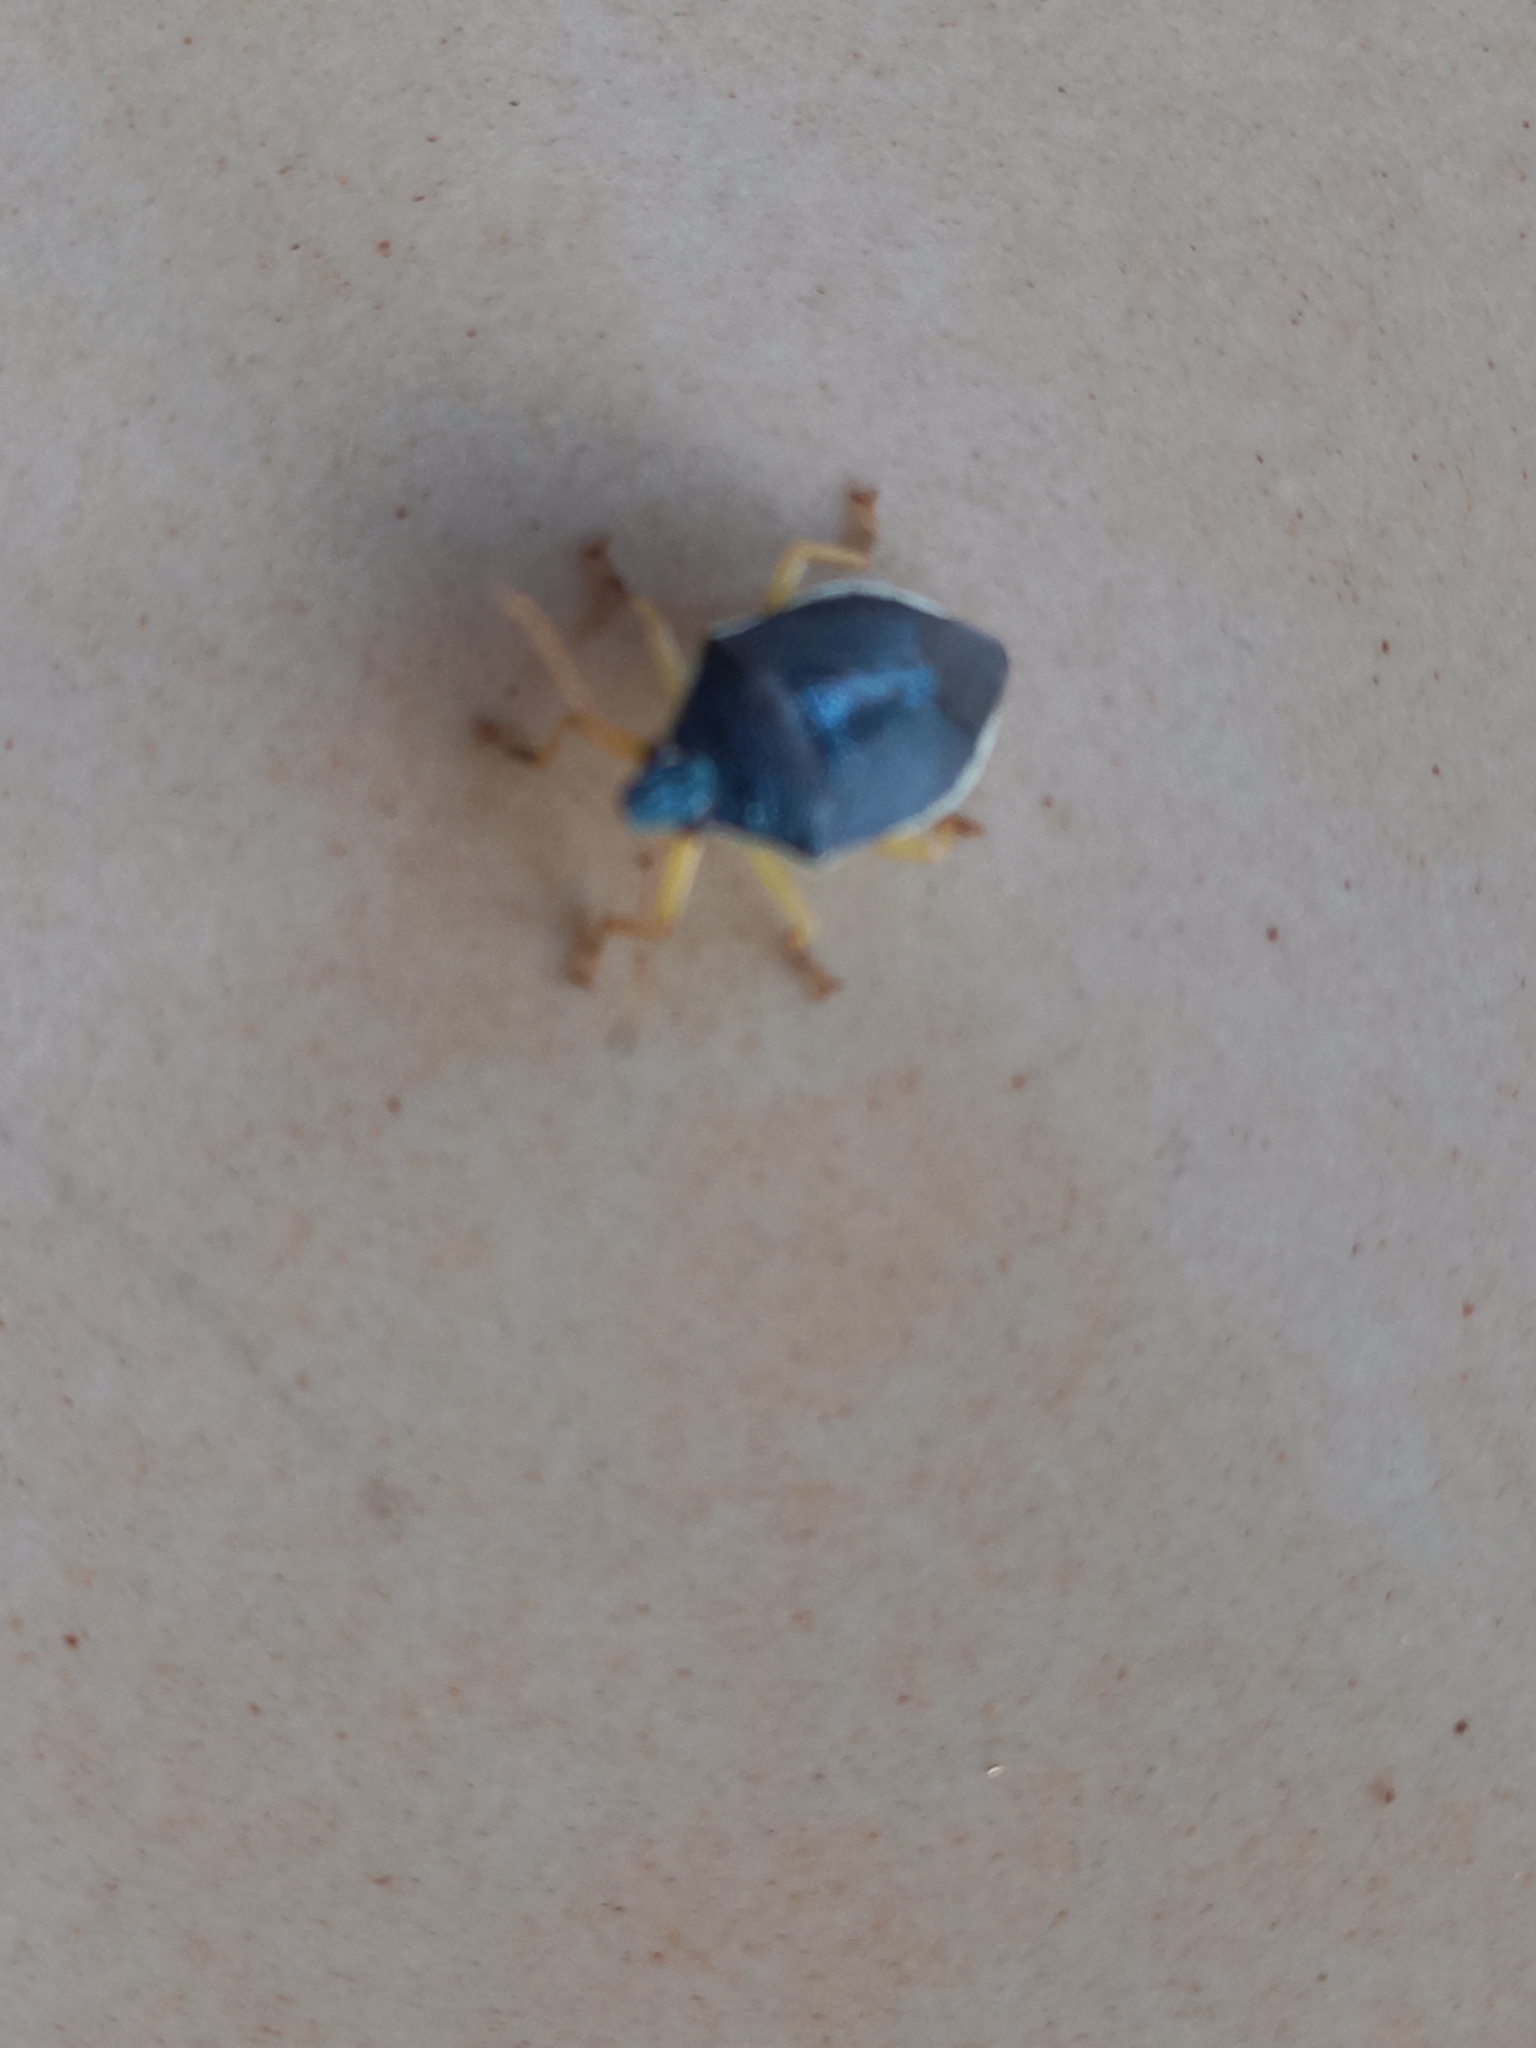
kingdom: Animalia
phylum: Arthropoda
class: Insecta
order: Hemiptera
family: Pentatomidae
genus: Tynacantha
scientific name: Tynacantha marginata
